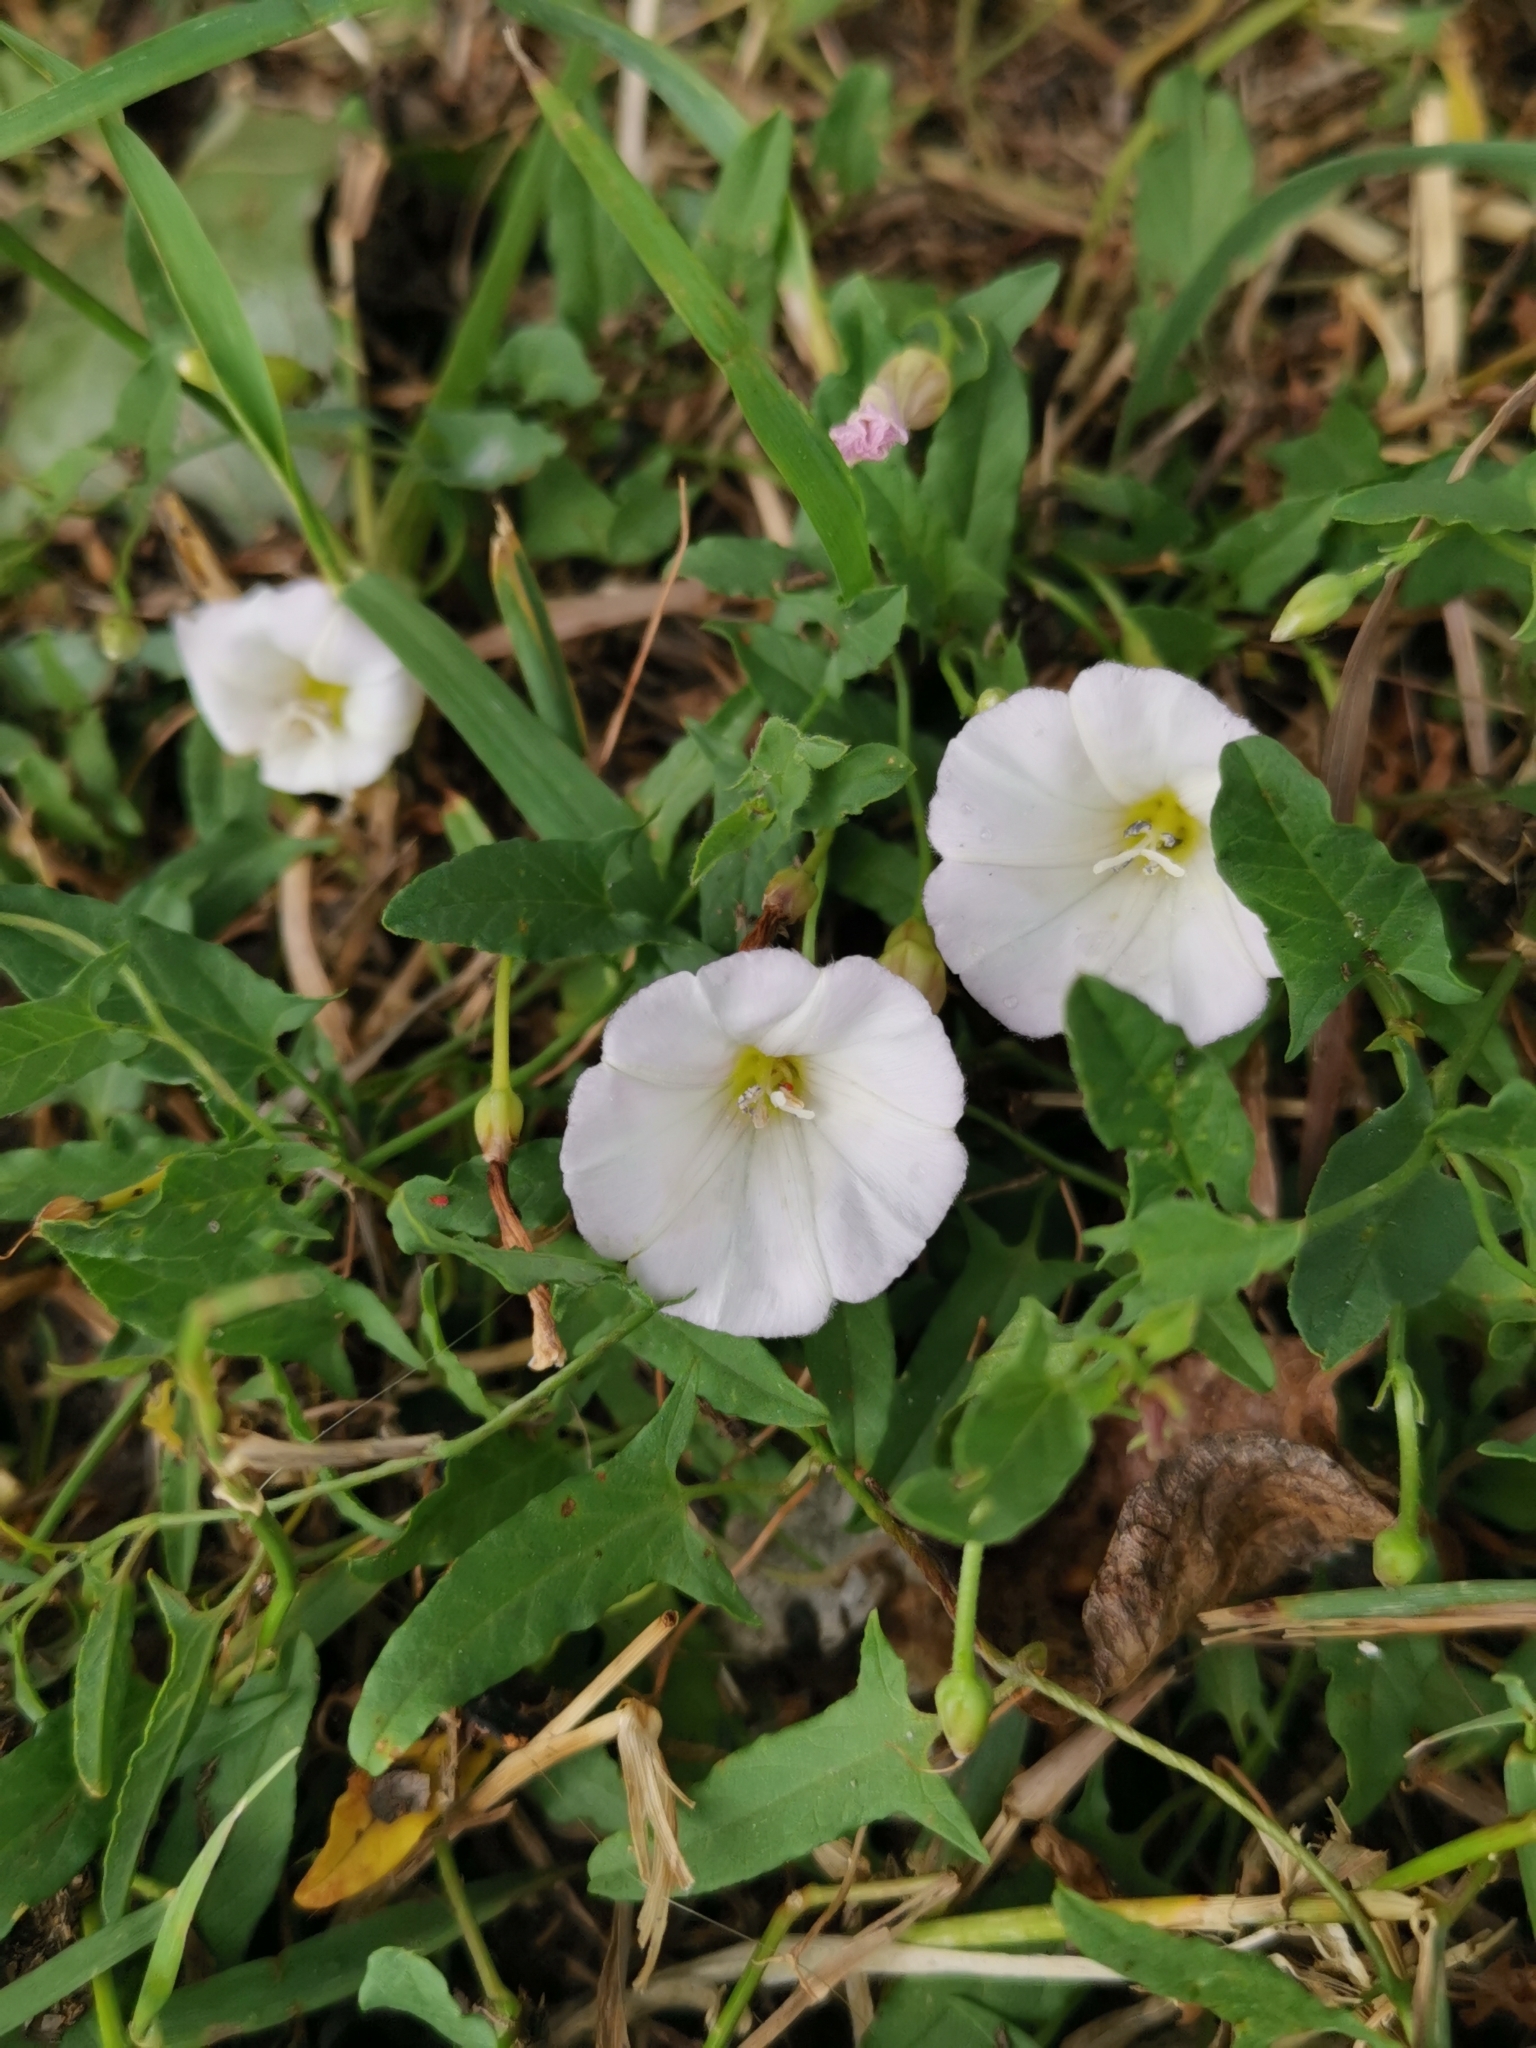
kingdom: Plantae
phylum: Tracheophyta
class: Magnoliopsida
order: Solanales
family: Convolvulaceae
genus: Convolvulus
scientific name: Convolvulus arvensis
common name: Field bindweed
